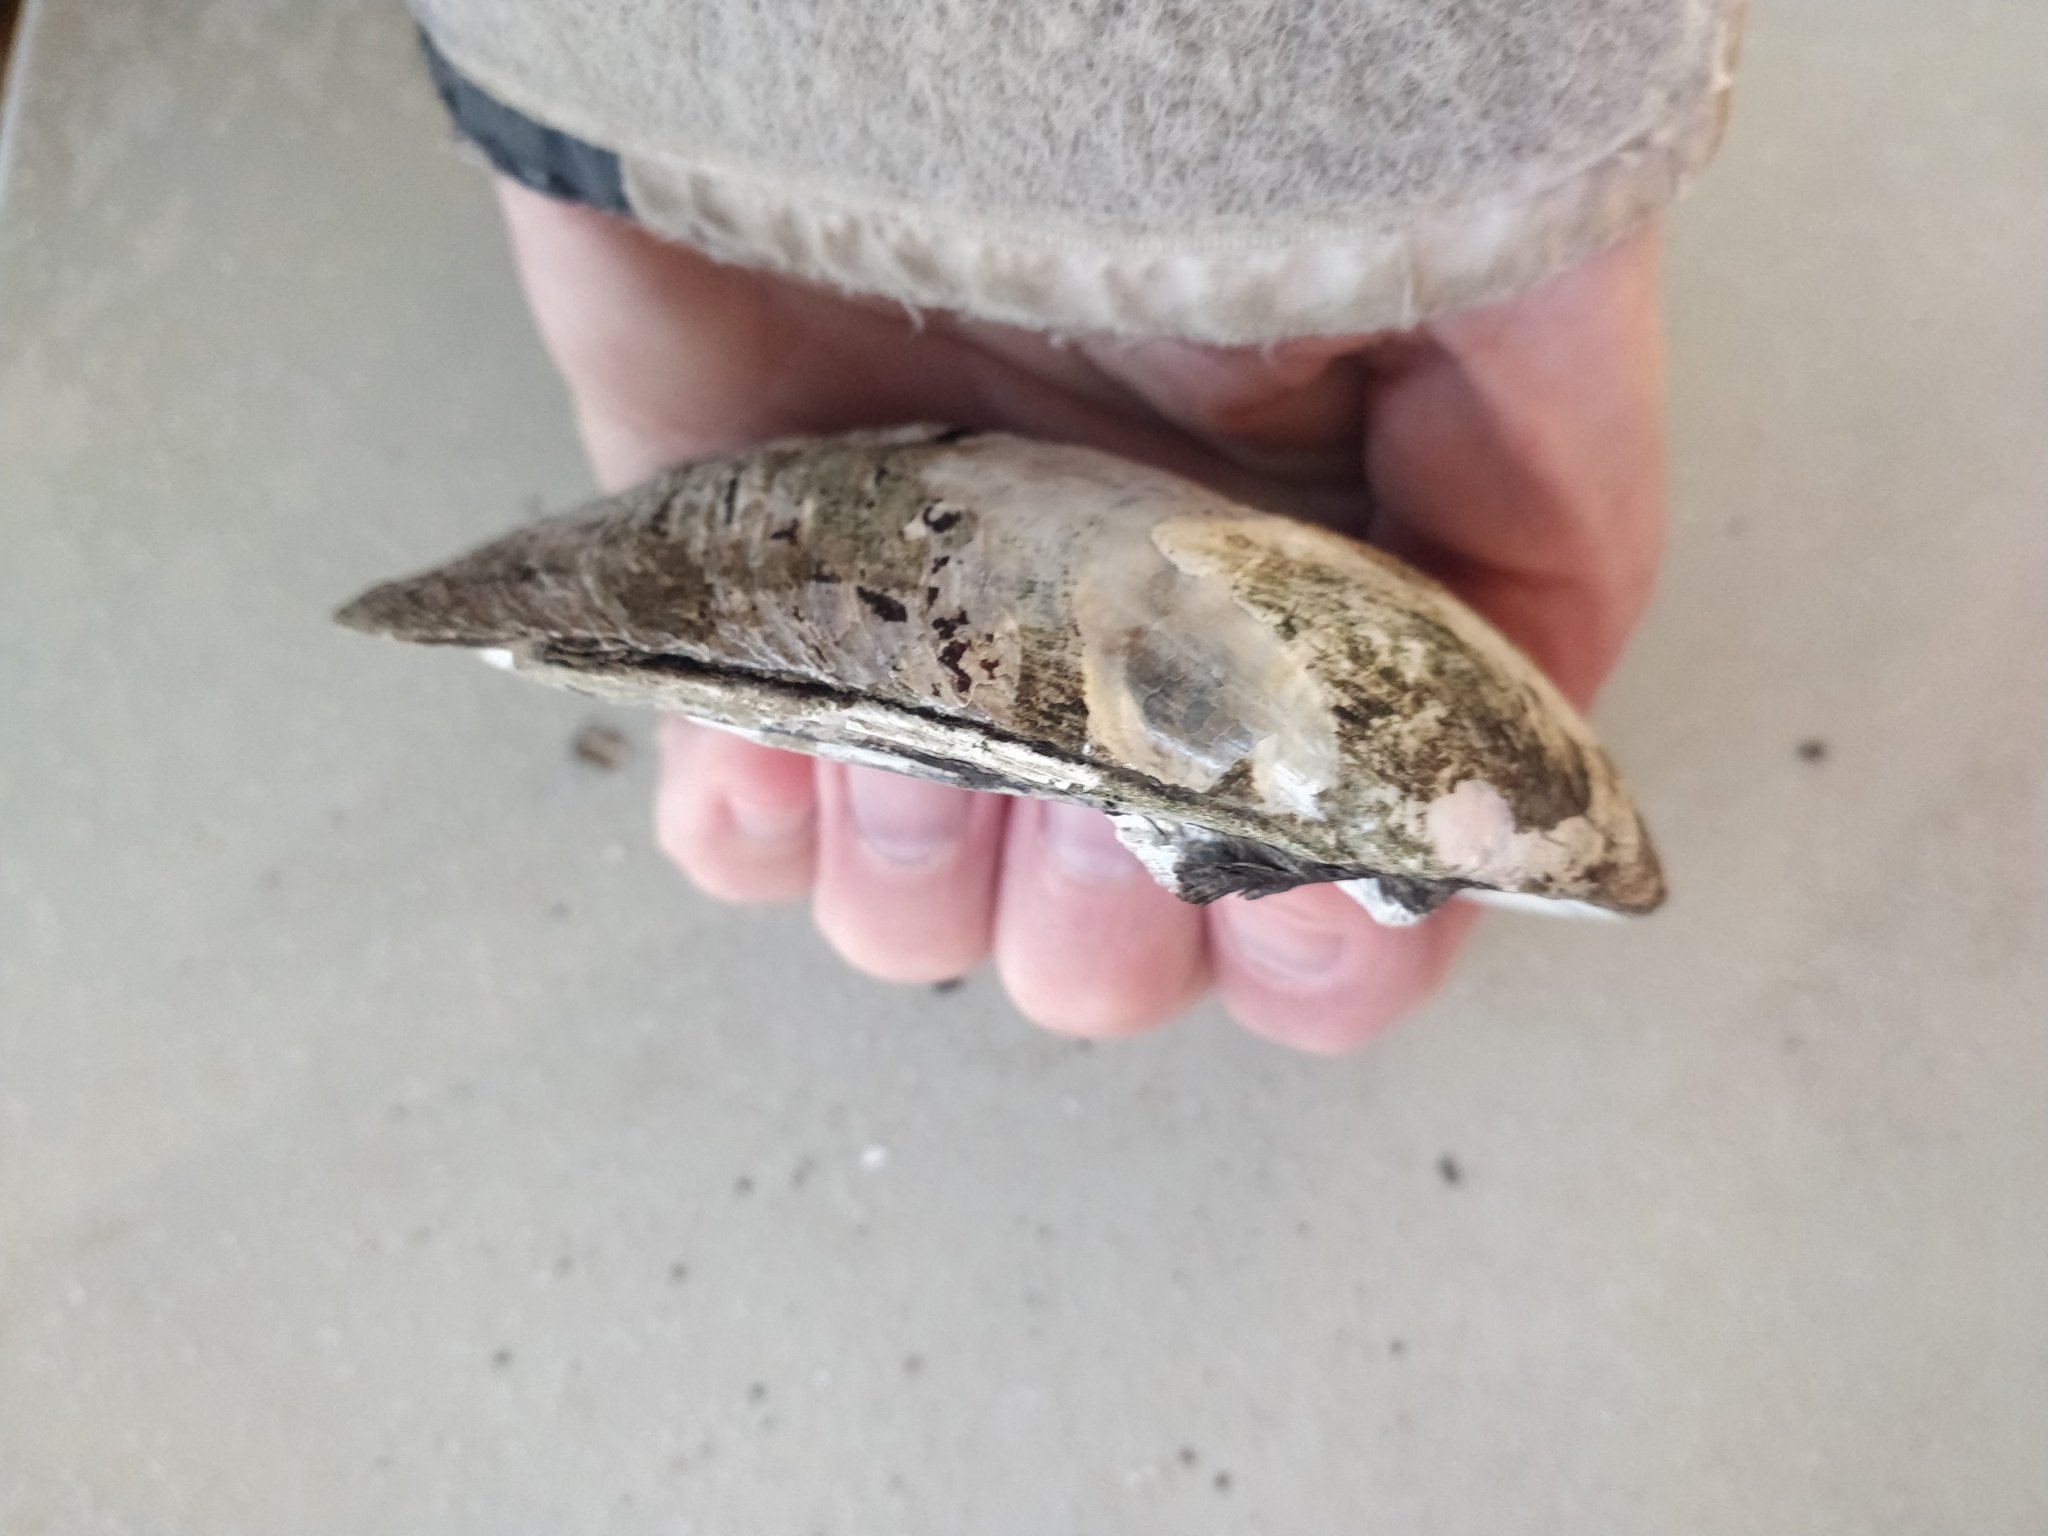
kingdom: Animalia
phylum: Mollusca
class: Bivalvia
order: Unionida
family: Unionidae
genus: Amblema
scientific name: Amblema plicata
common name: Threeridge
